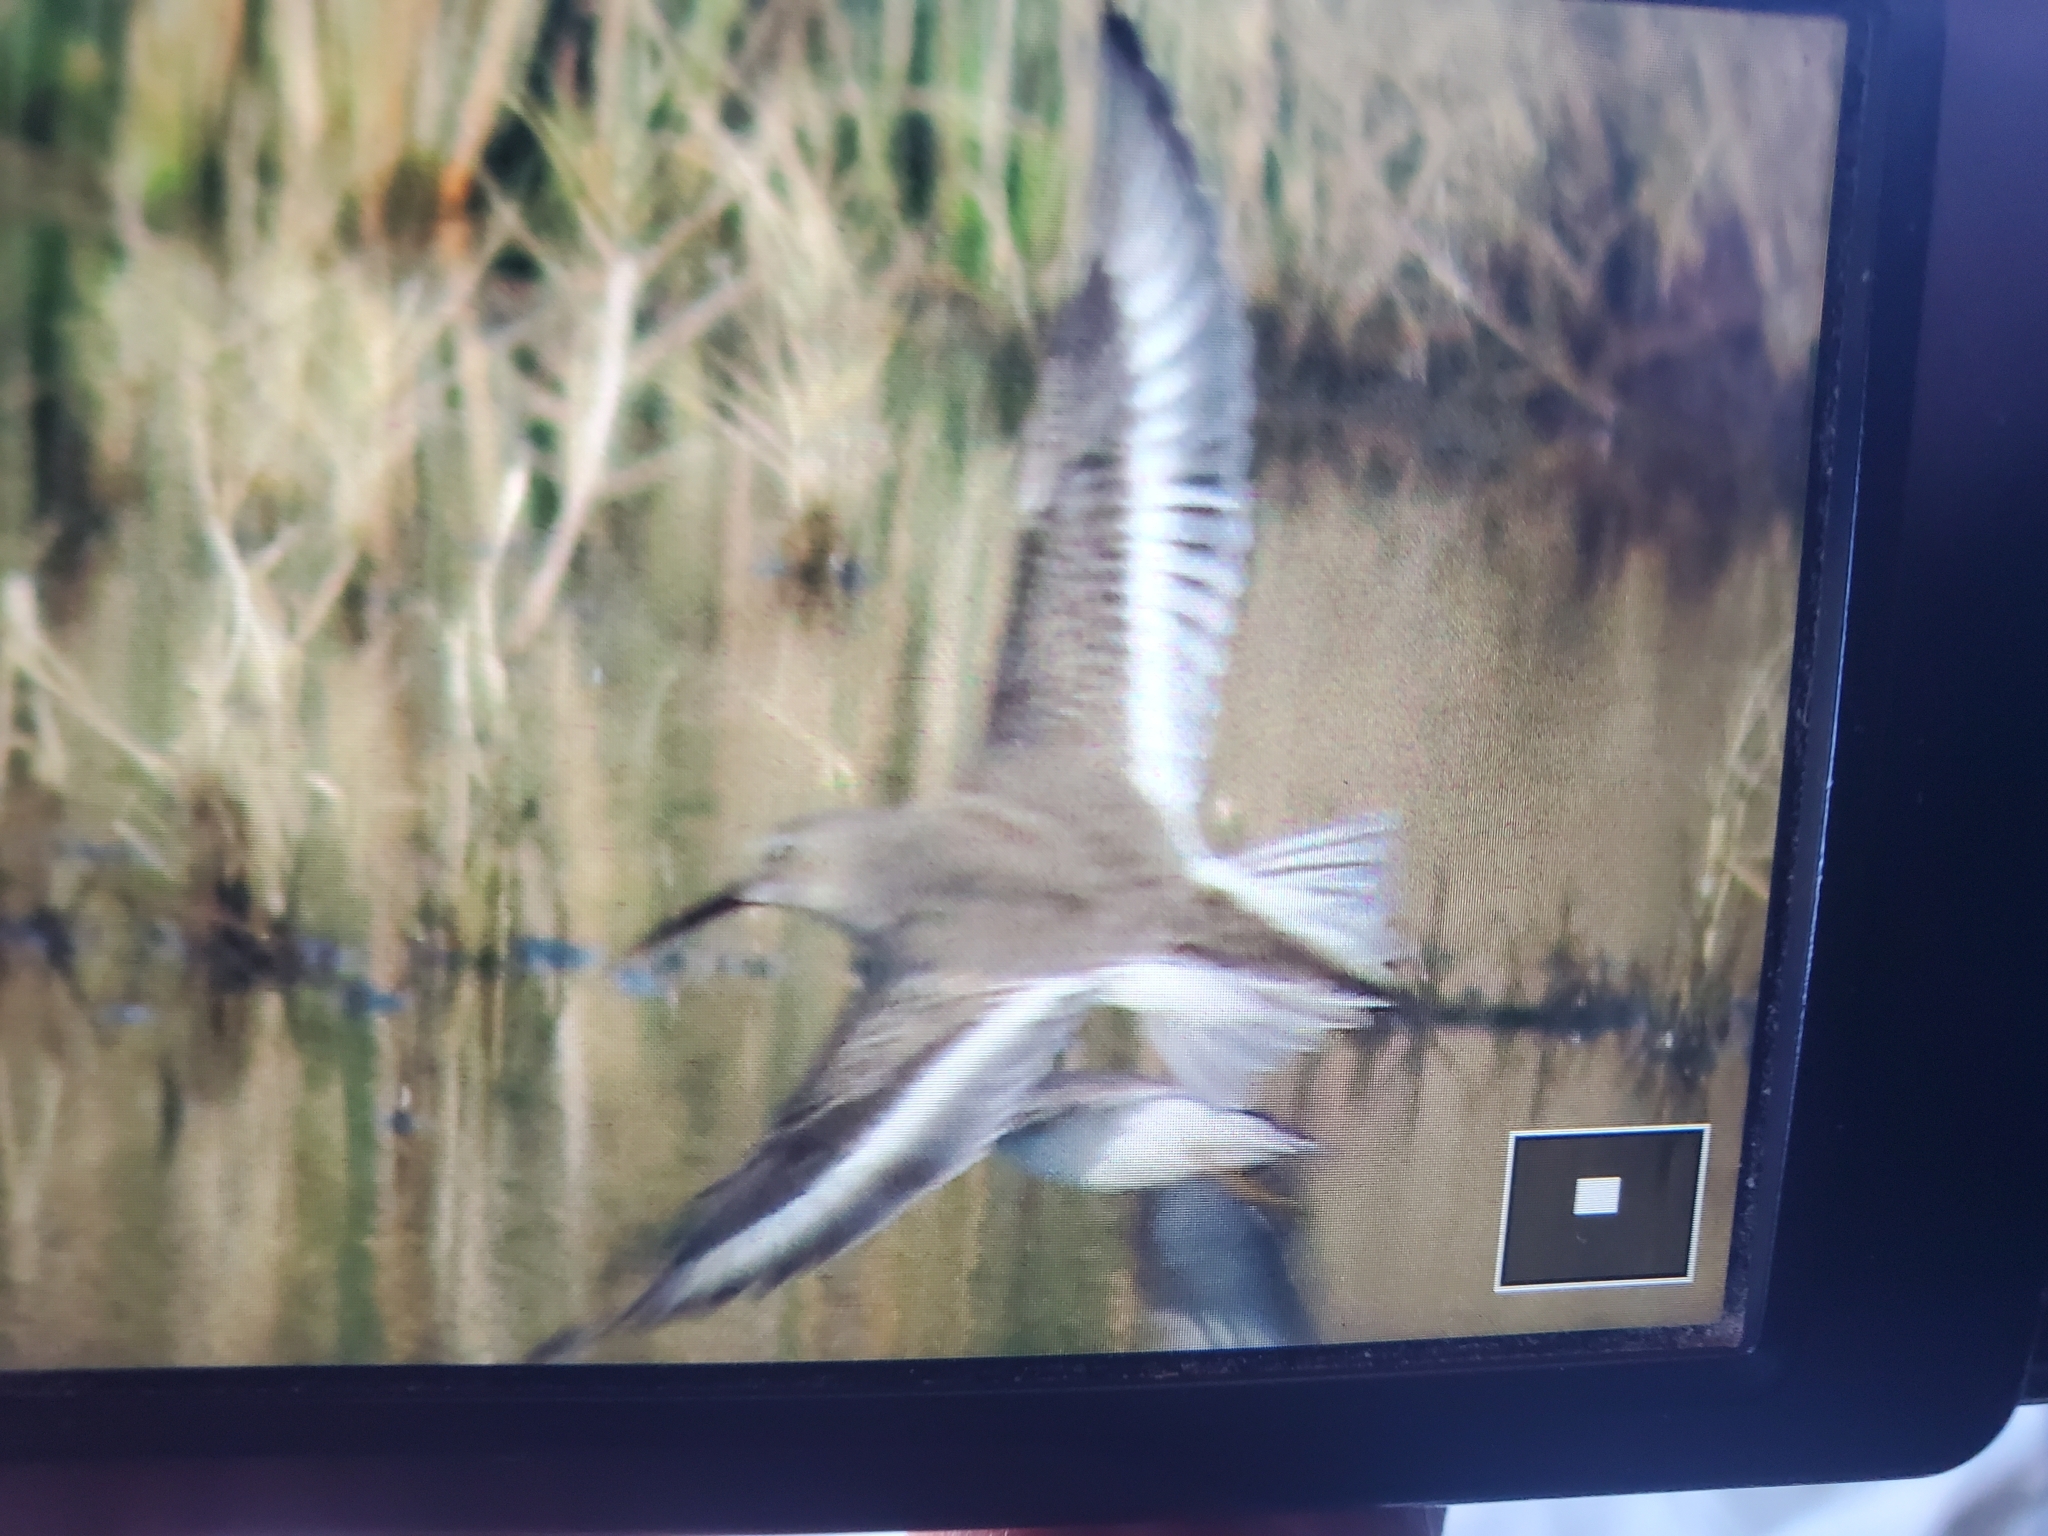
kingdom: Animalia
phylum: Chordata
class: Aves
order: Charadriiformes
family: Scolopacidae
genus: Calidris
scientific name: Calidris alpina
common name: Dunlin
